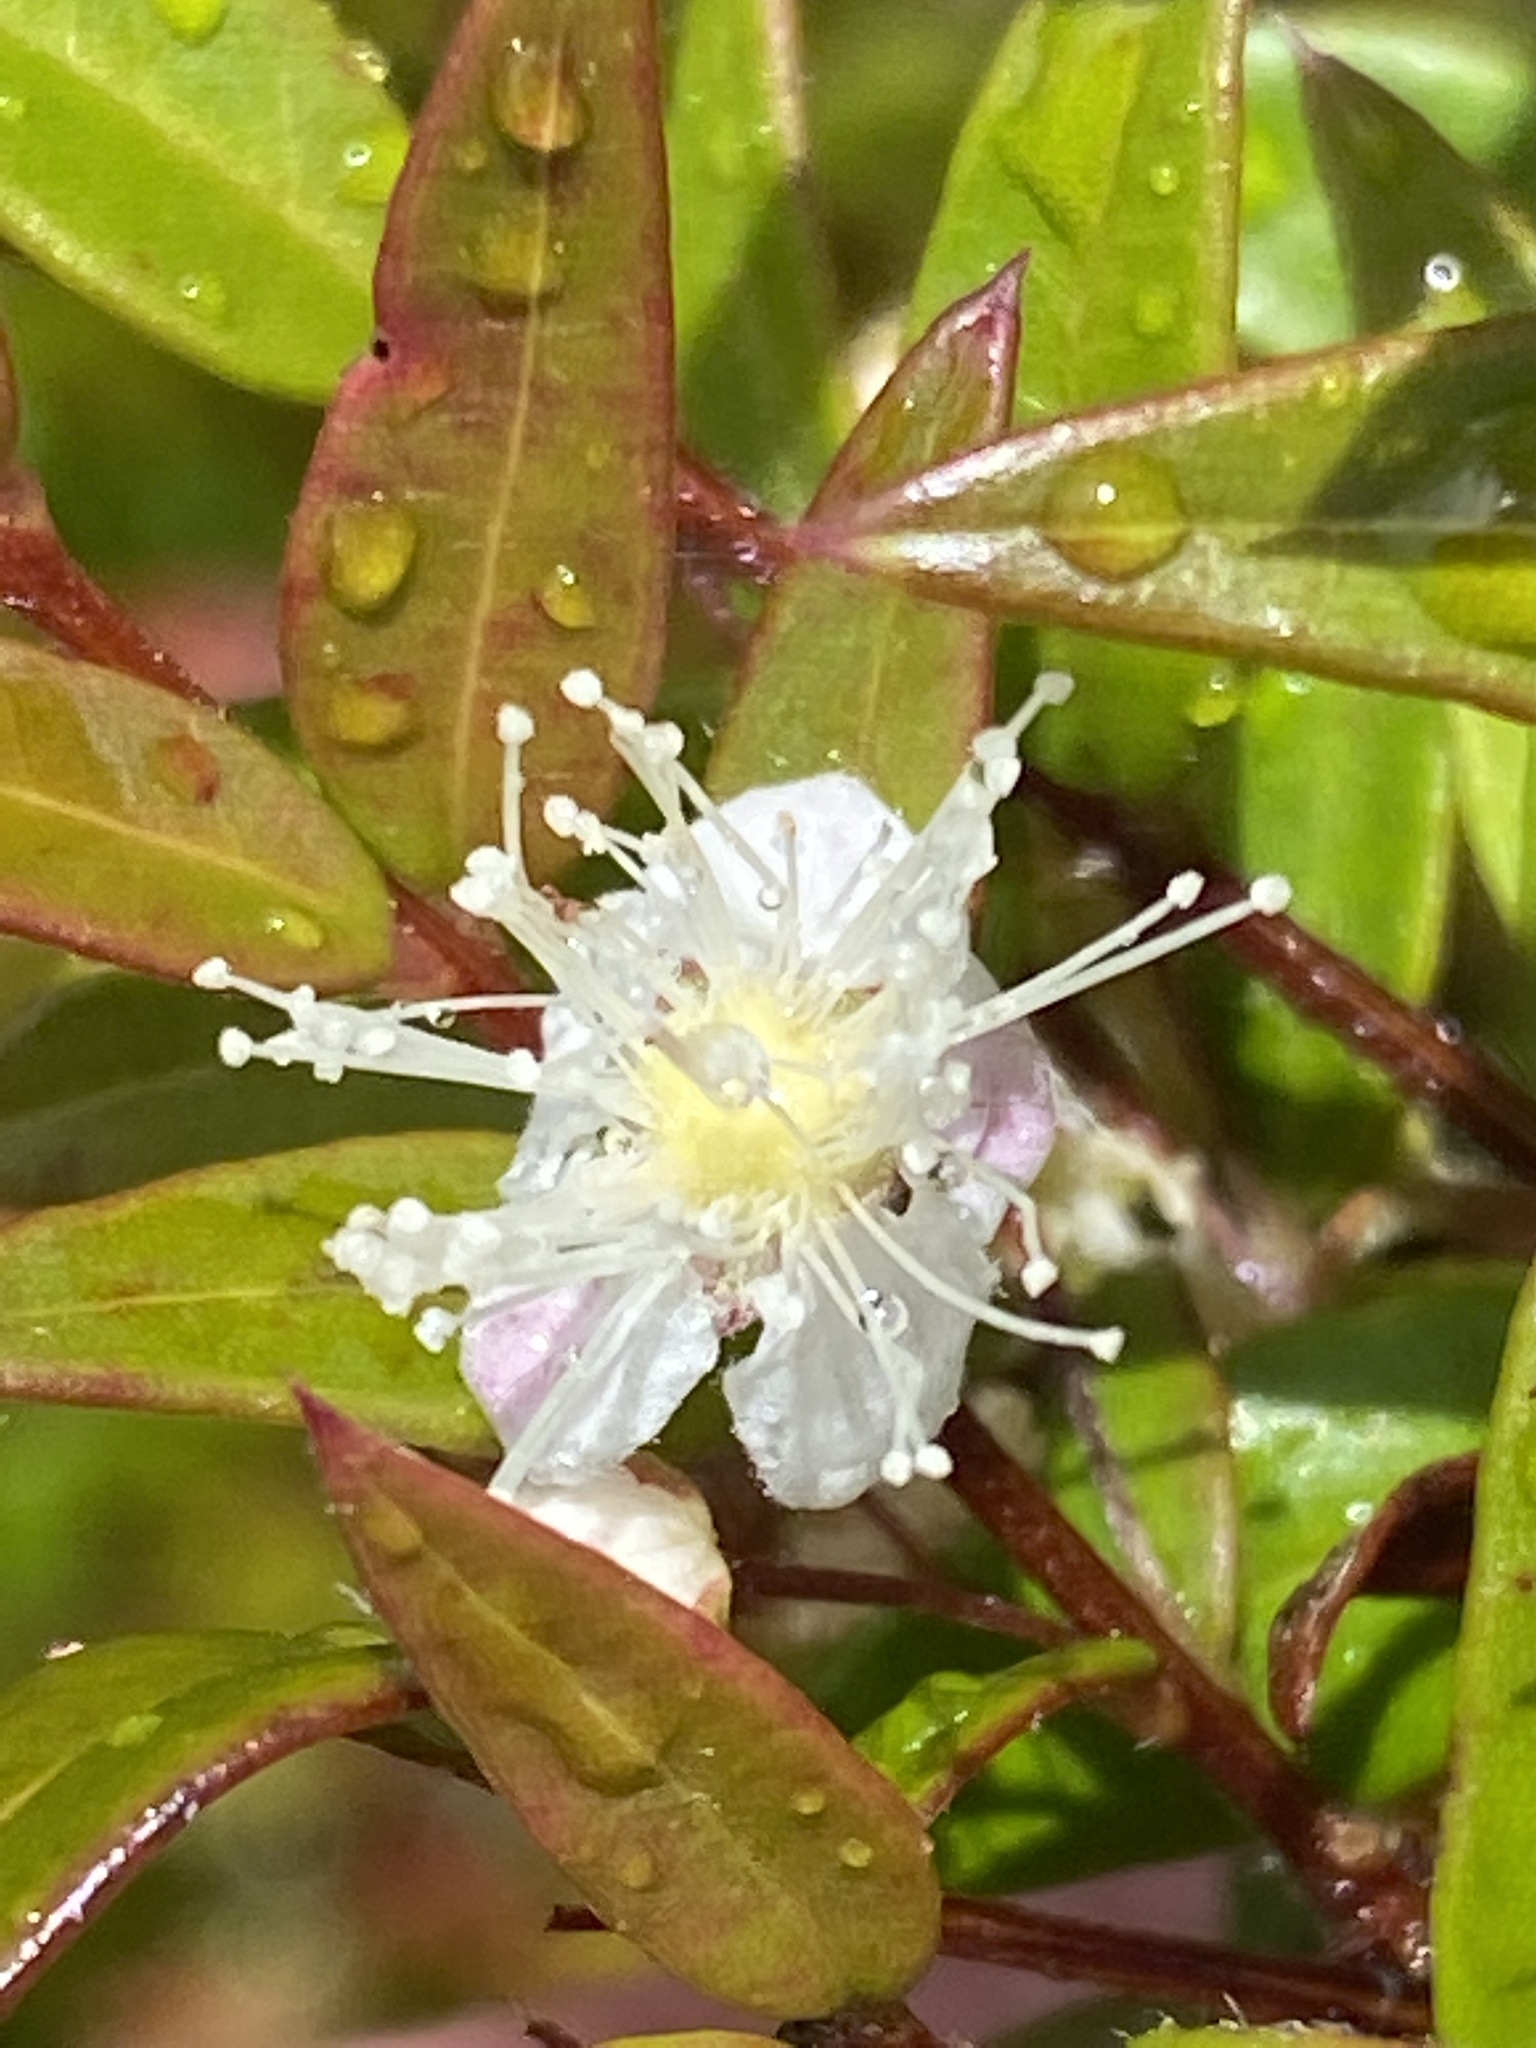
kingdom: Plantae
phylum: Tracheophyta
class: Magnoliopsida
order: Myrtales
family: Myrtaceae
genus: Austromyrtus
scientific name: Austromyrtus dulcis
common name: Migden-berry
